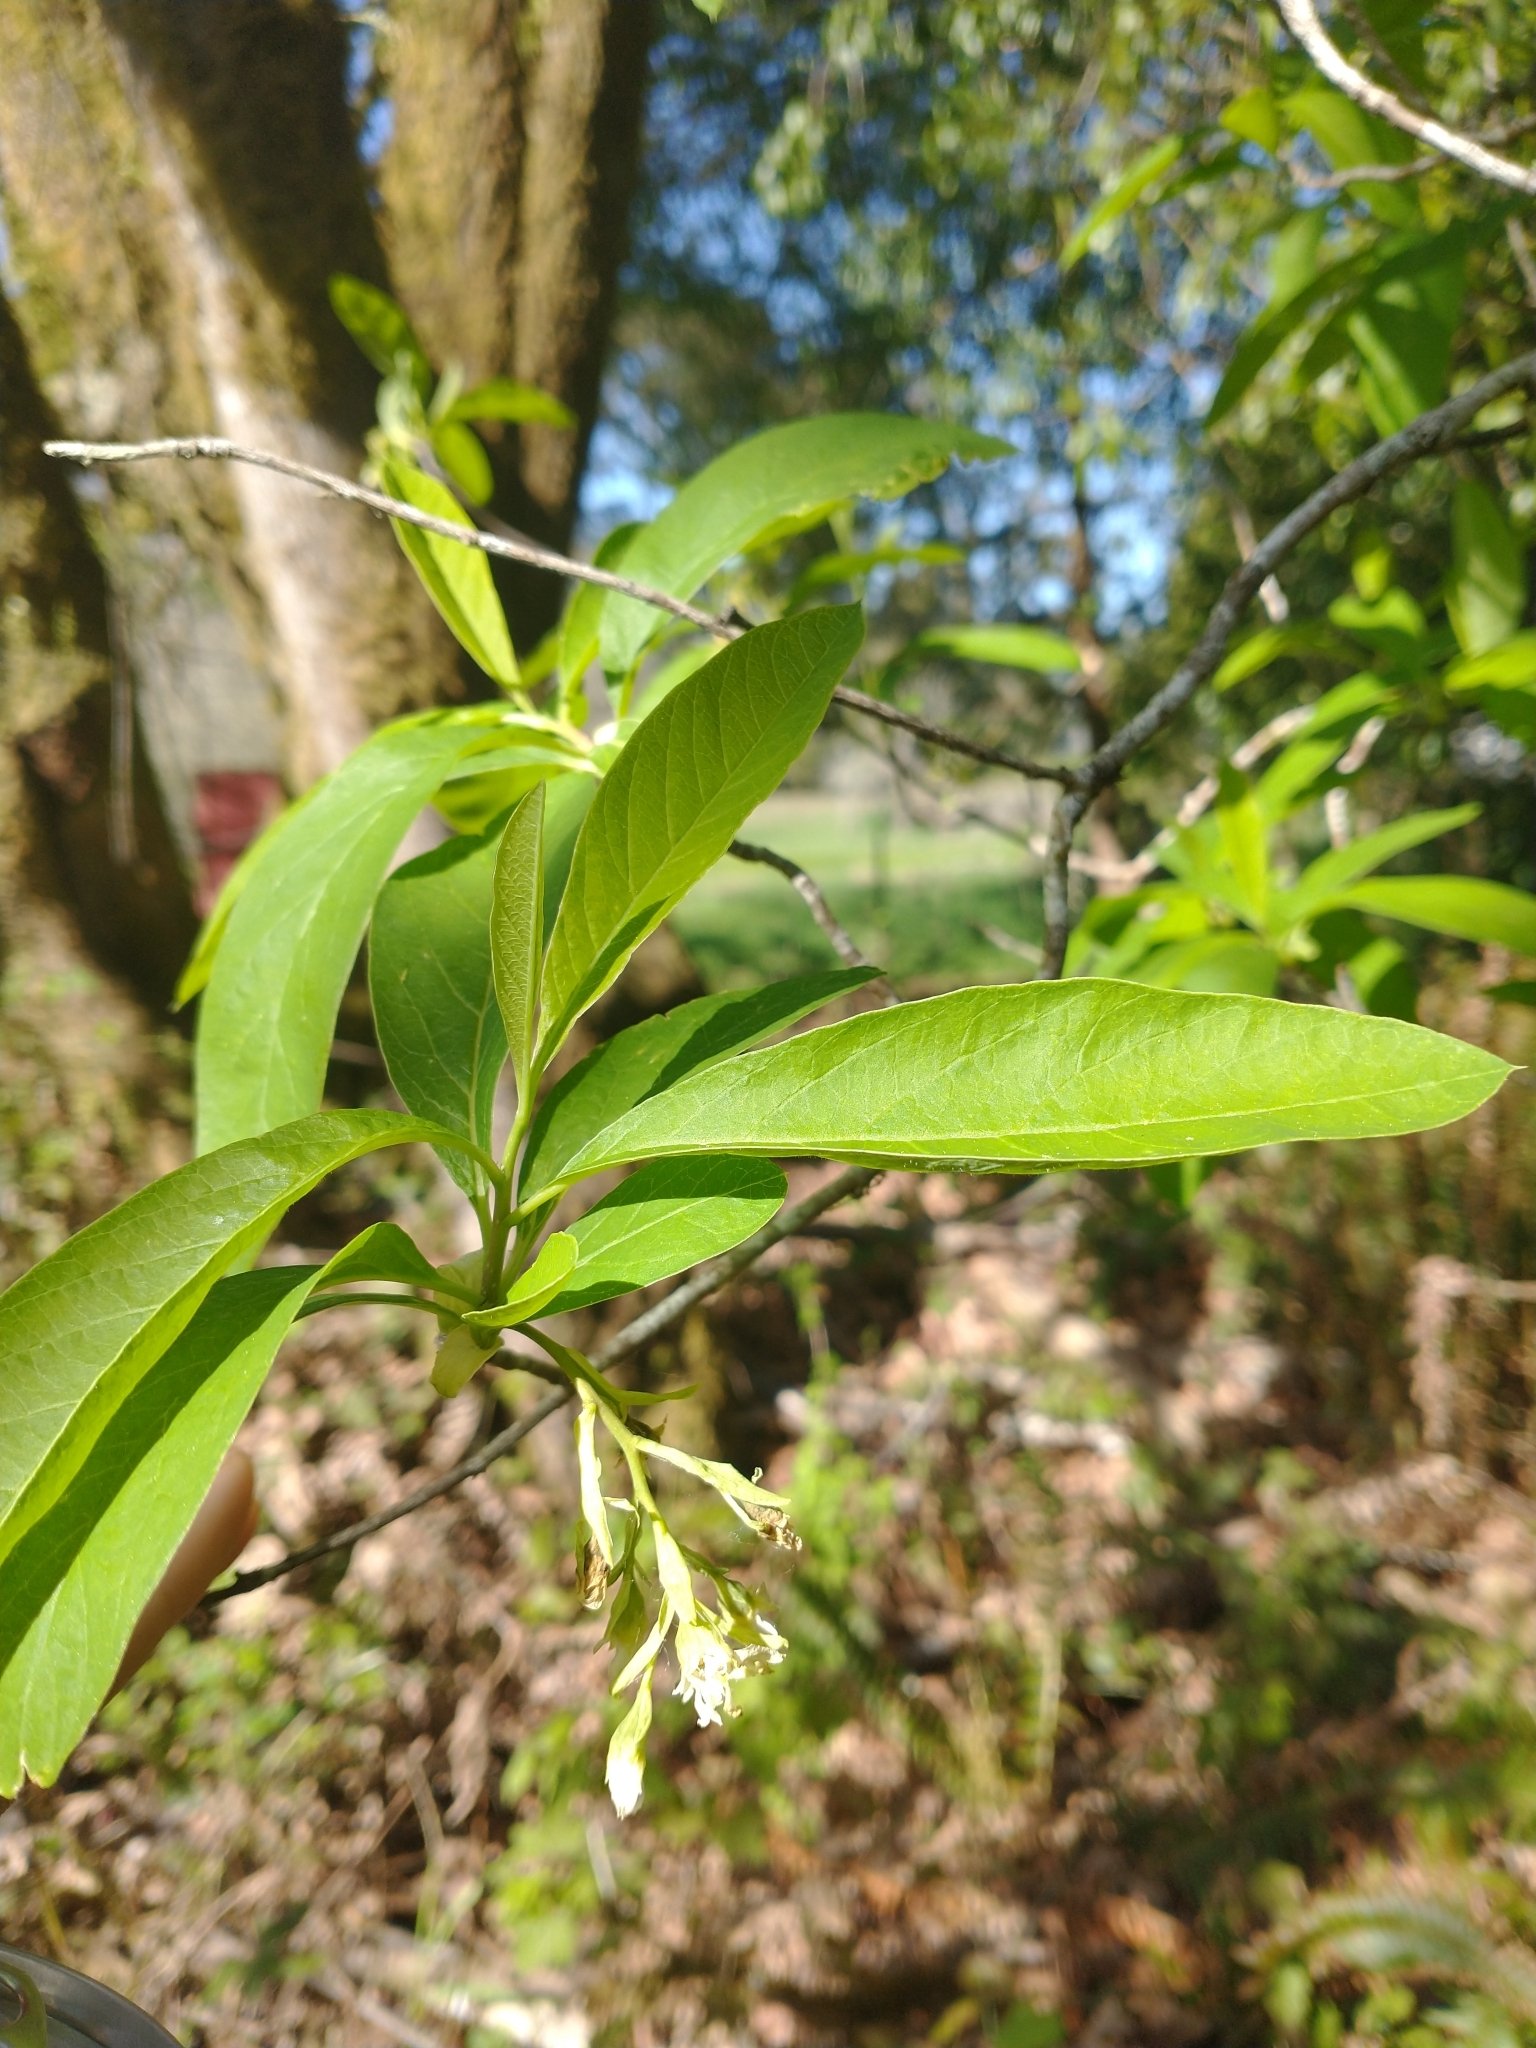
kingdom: Plantae
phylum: Tracheophyta
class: Magnoliopsida
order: Rosales
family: Rosaceae
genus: Oemleria
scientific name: Oemleria cerasiformis
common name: Osoberry
